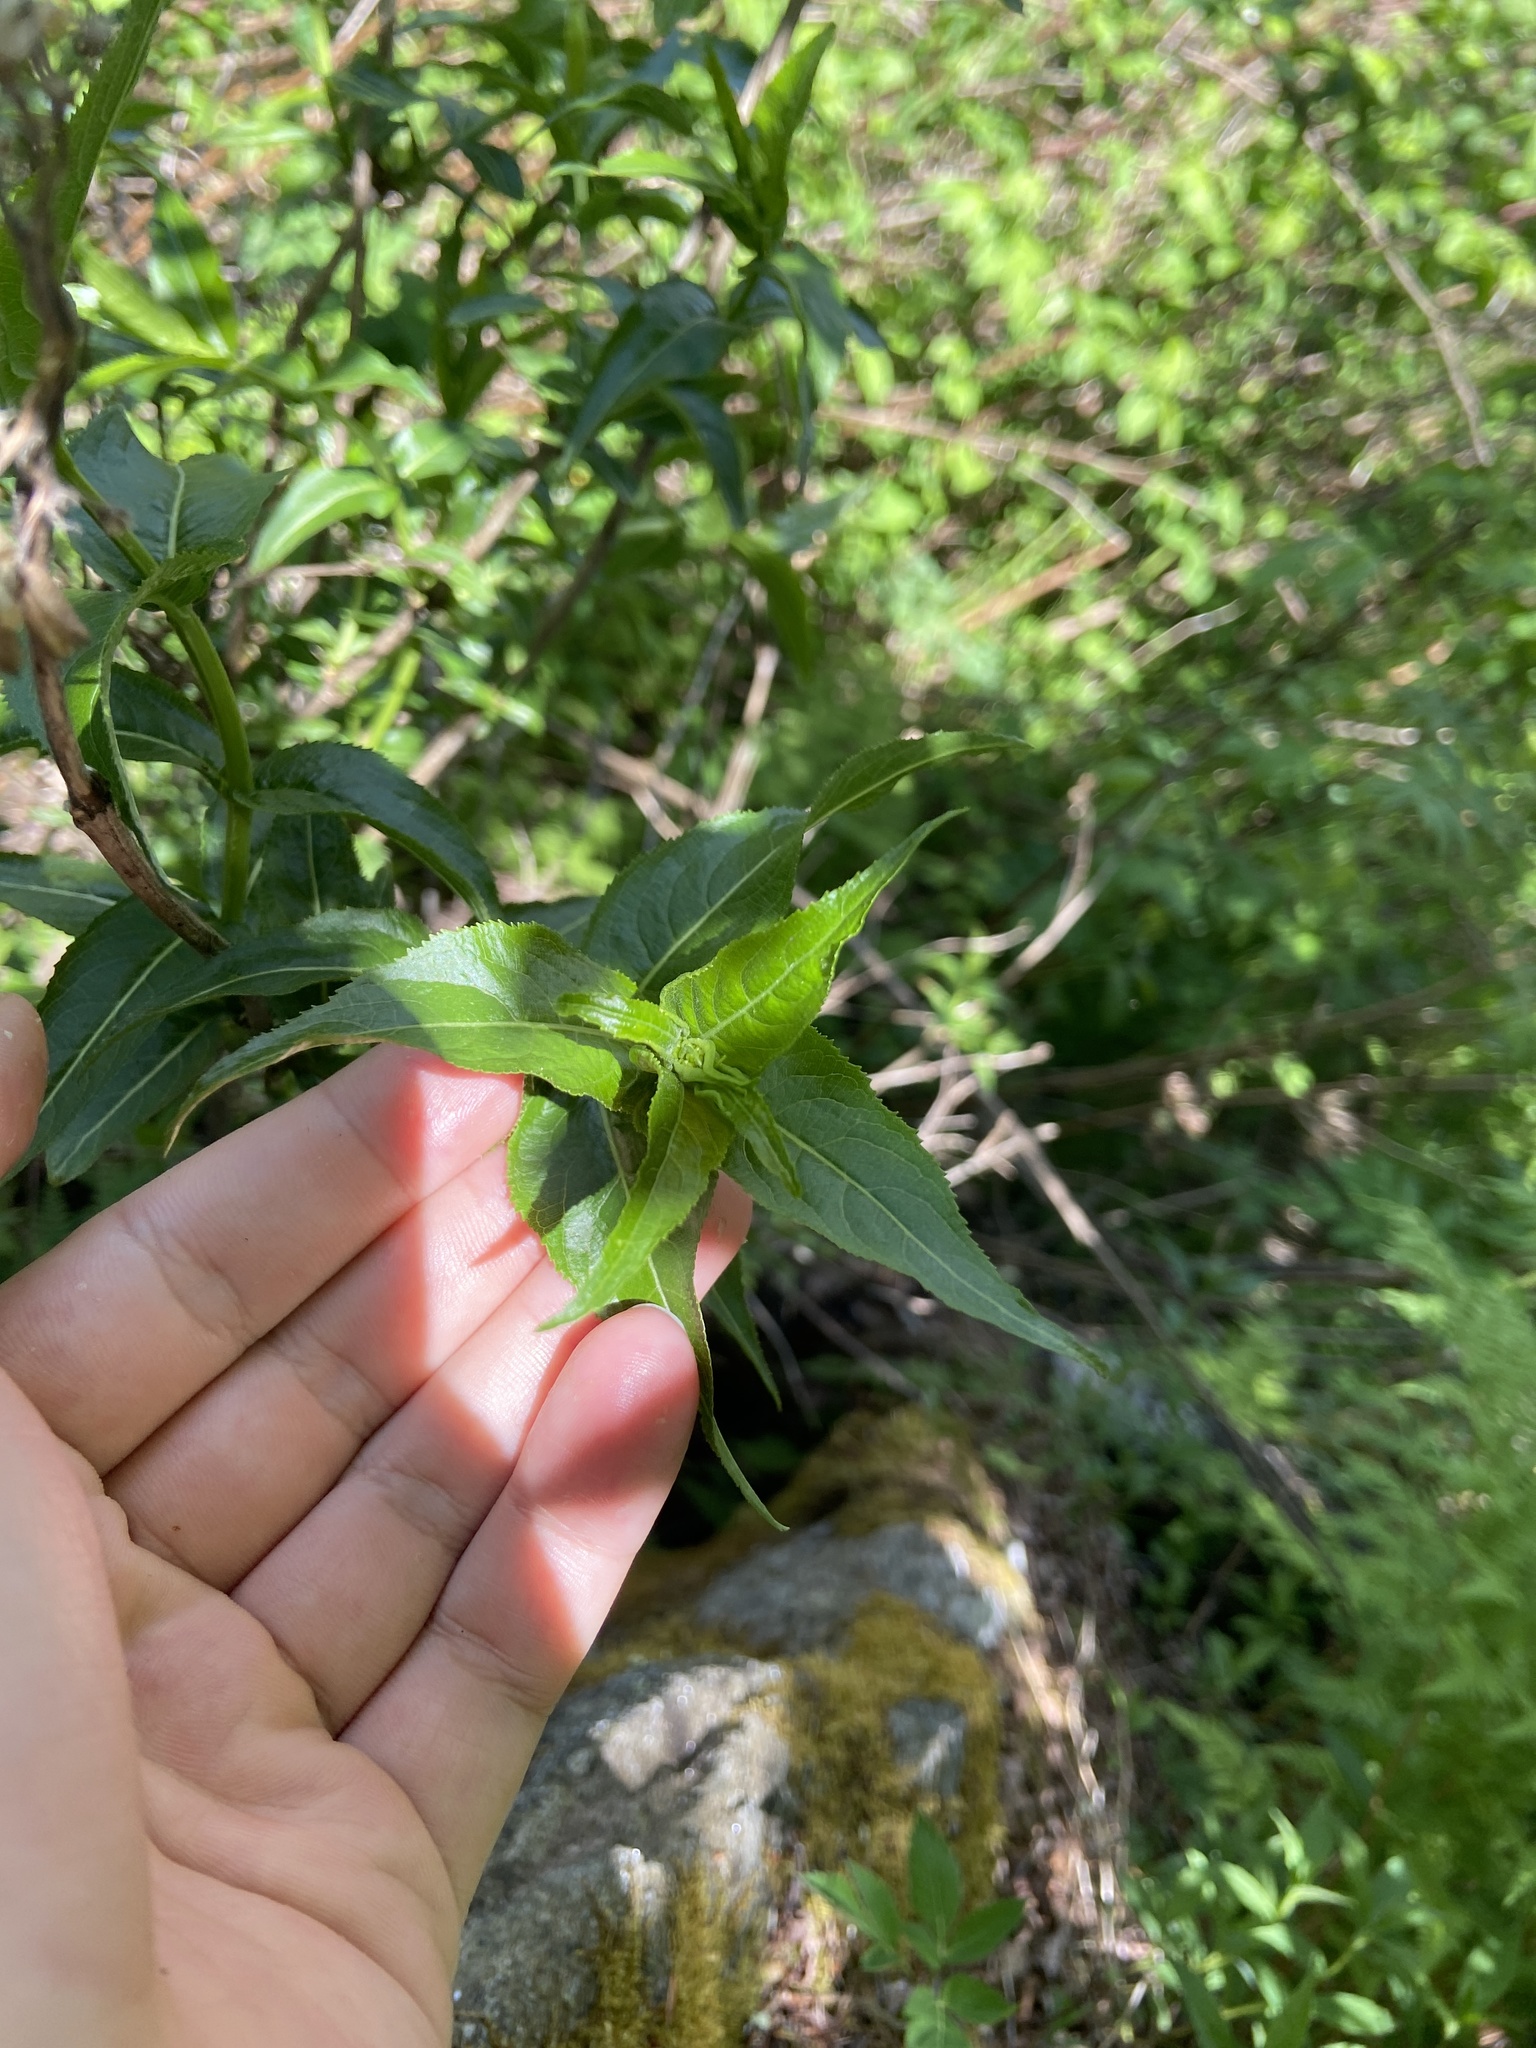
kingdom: Plantae
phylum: Tracheophyta
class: Magnoliopsida
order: Dipsacales
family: Caprifoliaceae
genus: Diervilla
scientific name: Diervilla sessilifolia
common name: Bush-honeysuckle
